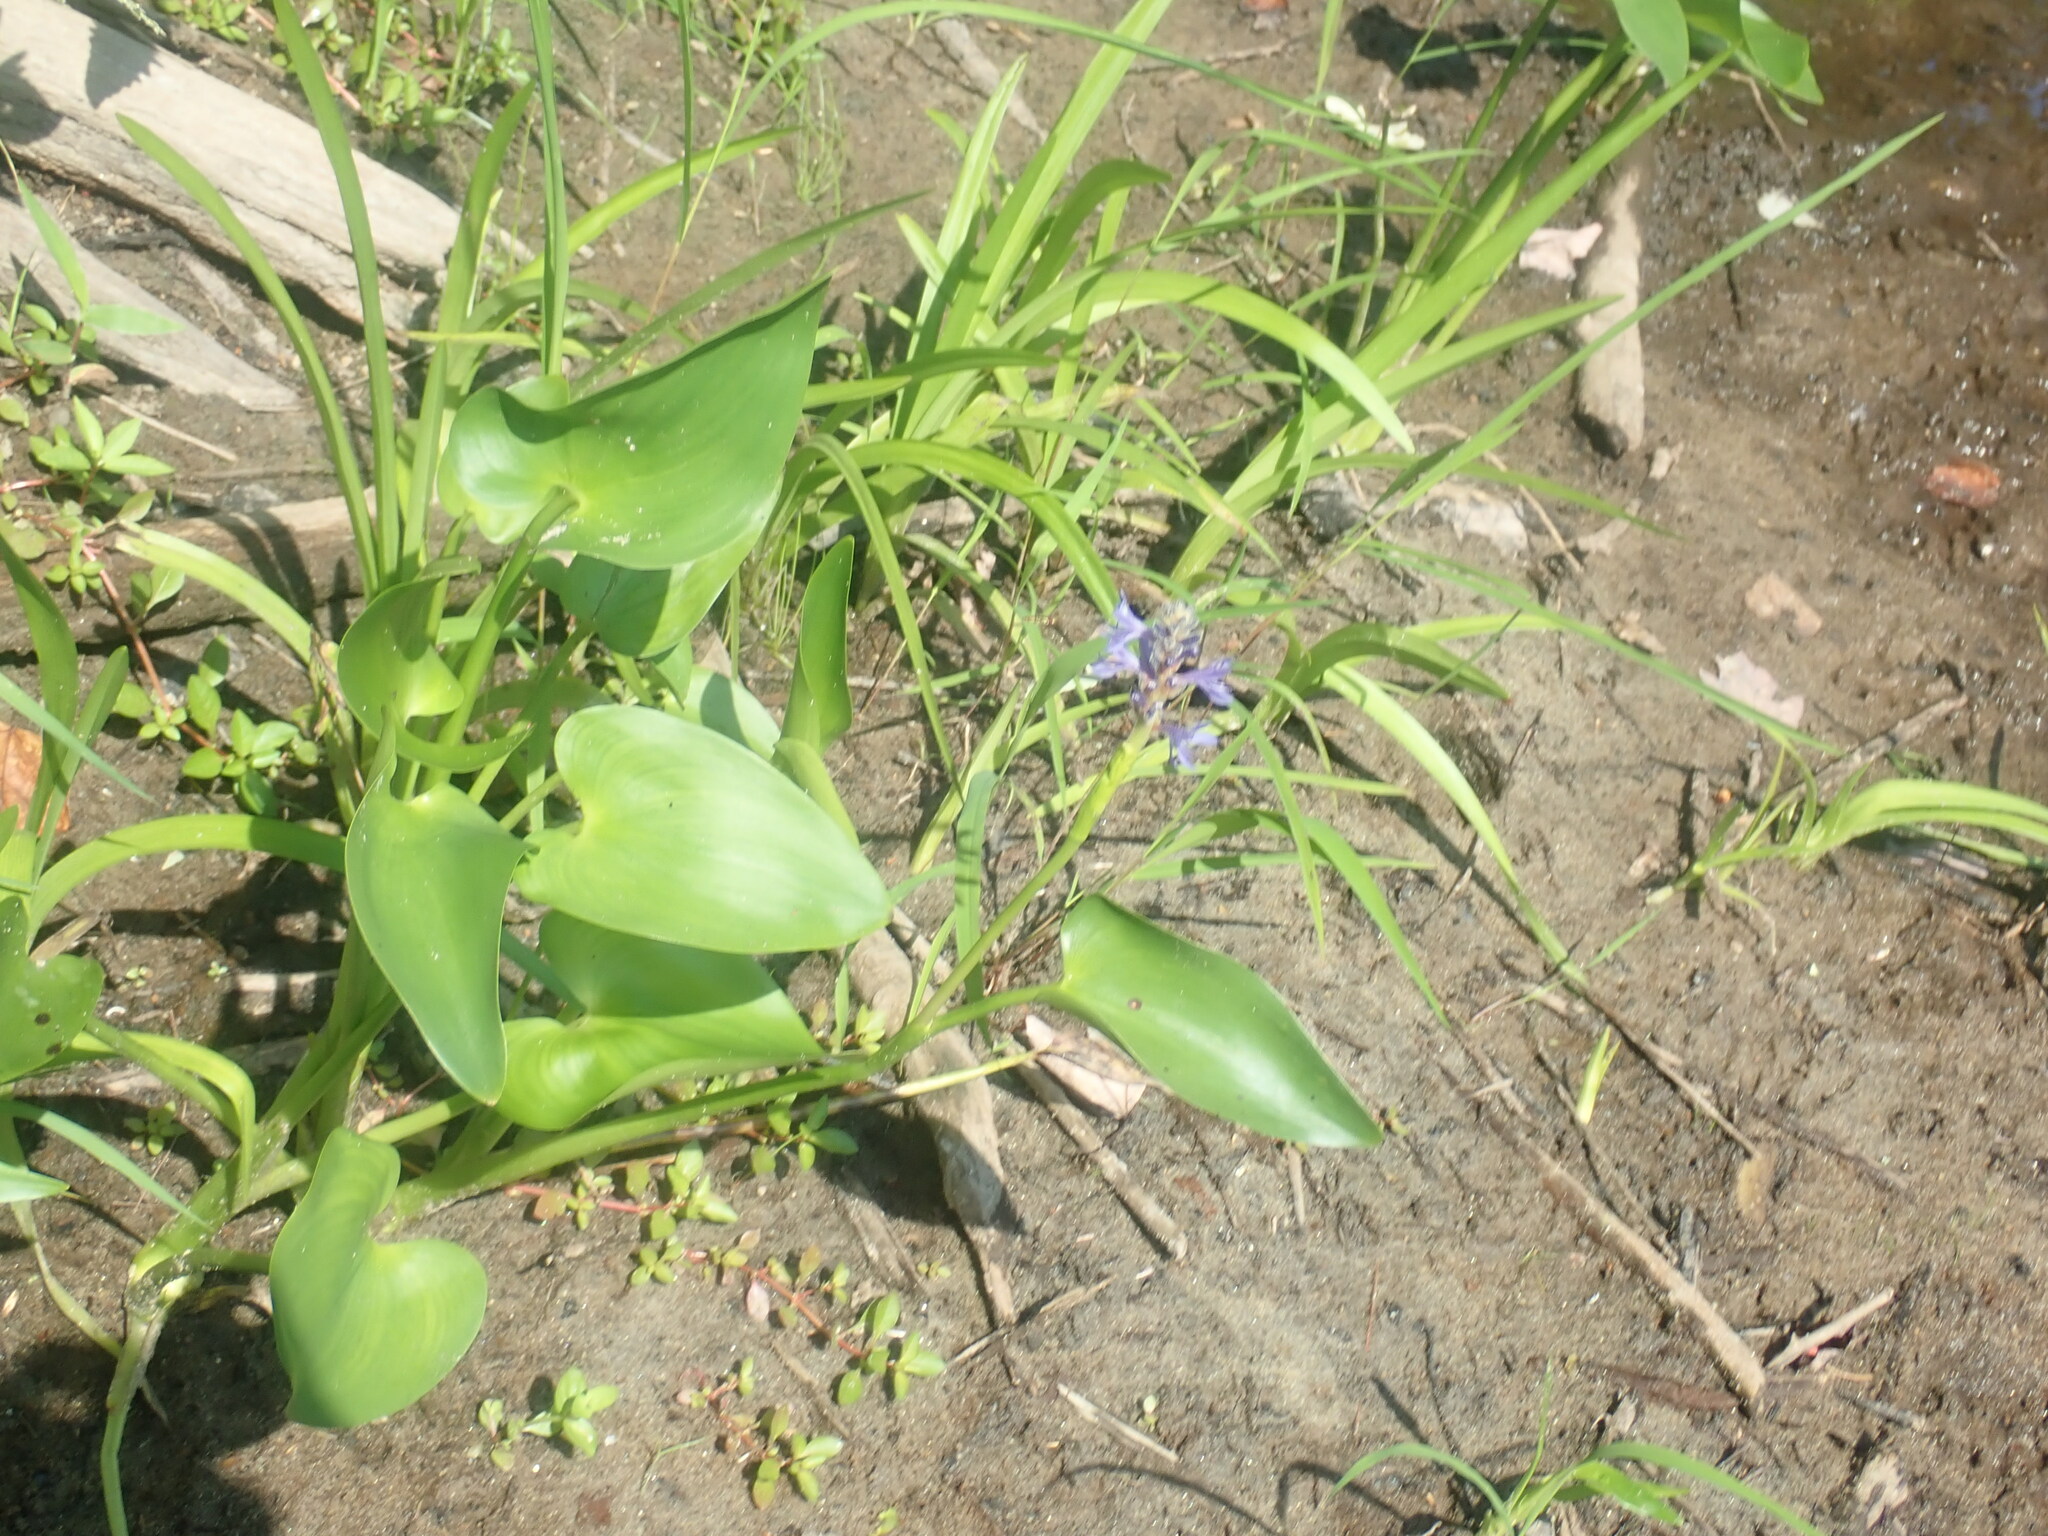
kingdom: Plantae
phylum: Tracheophyta
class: Liliopsida
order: Commelinales
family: Pontederiaceae
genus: Pontederia
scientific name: Pontederia cordata
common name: Pickerelweed
